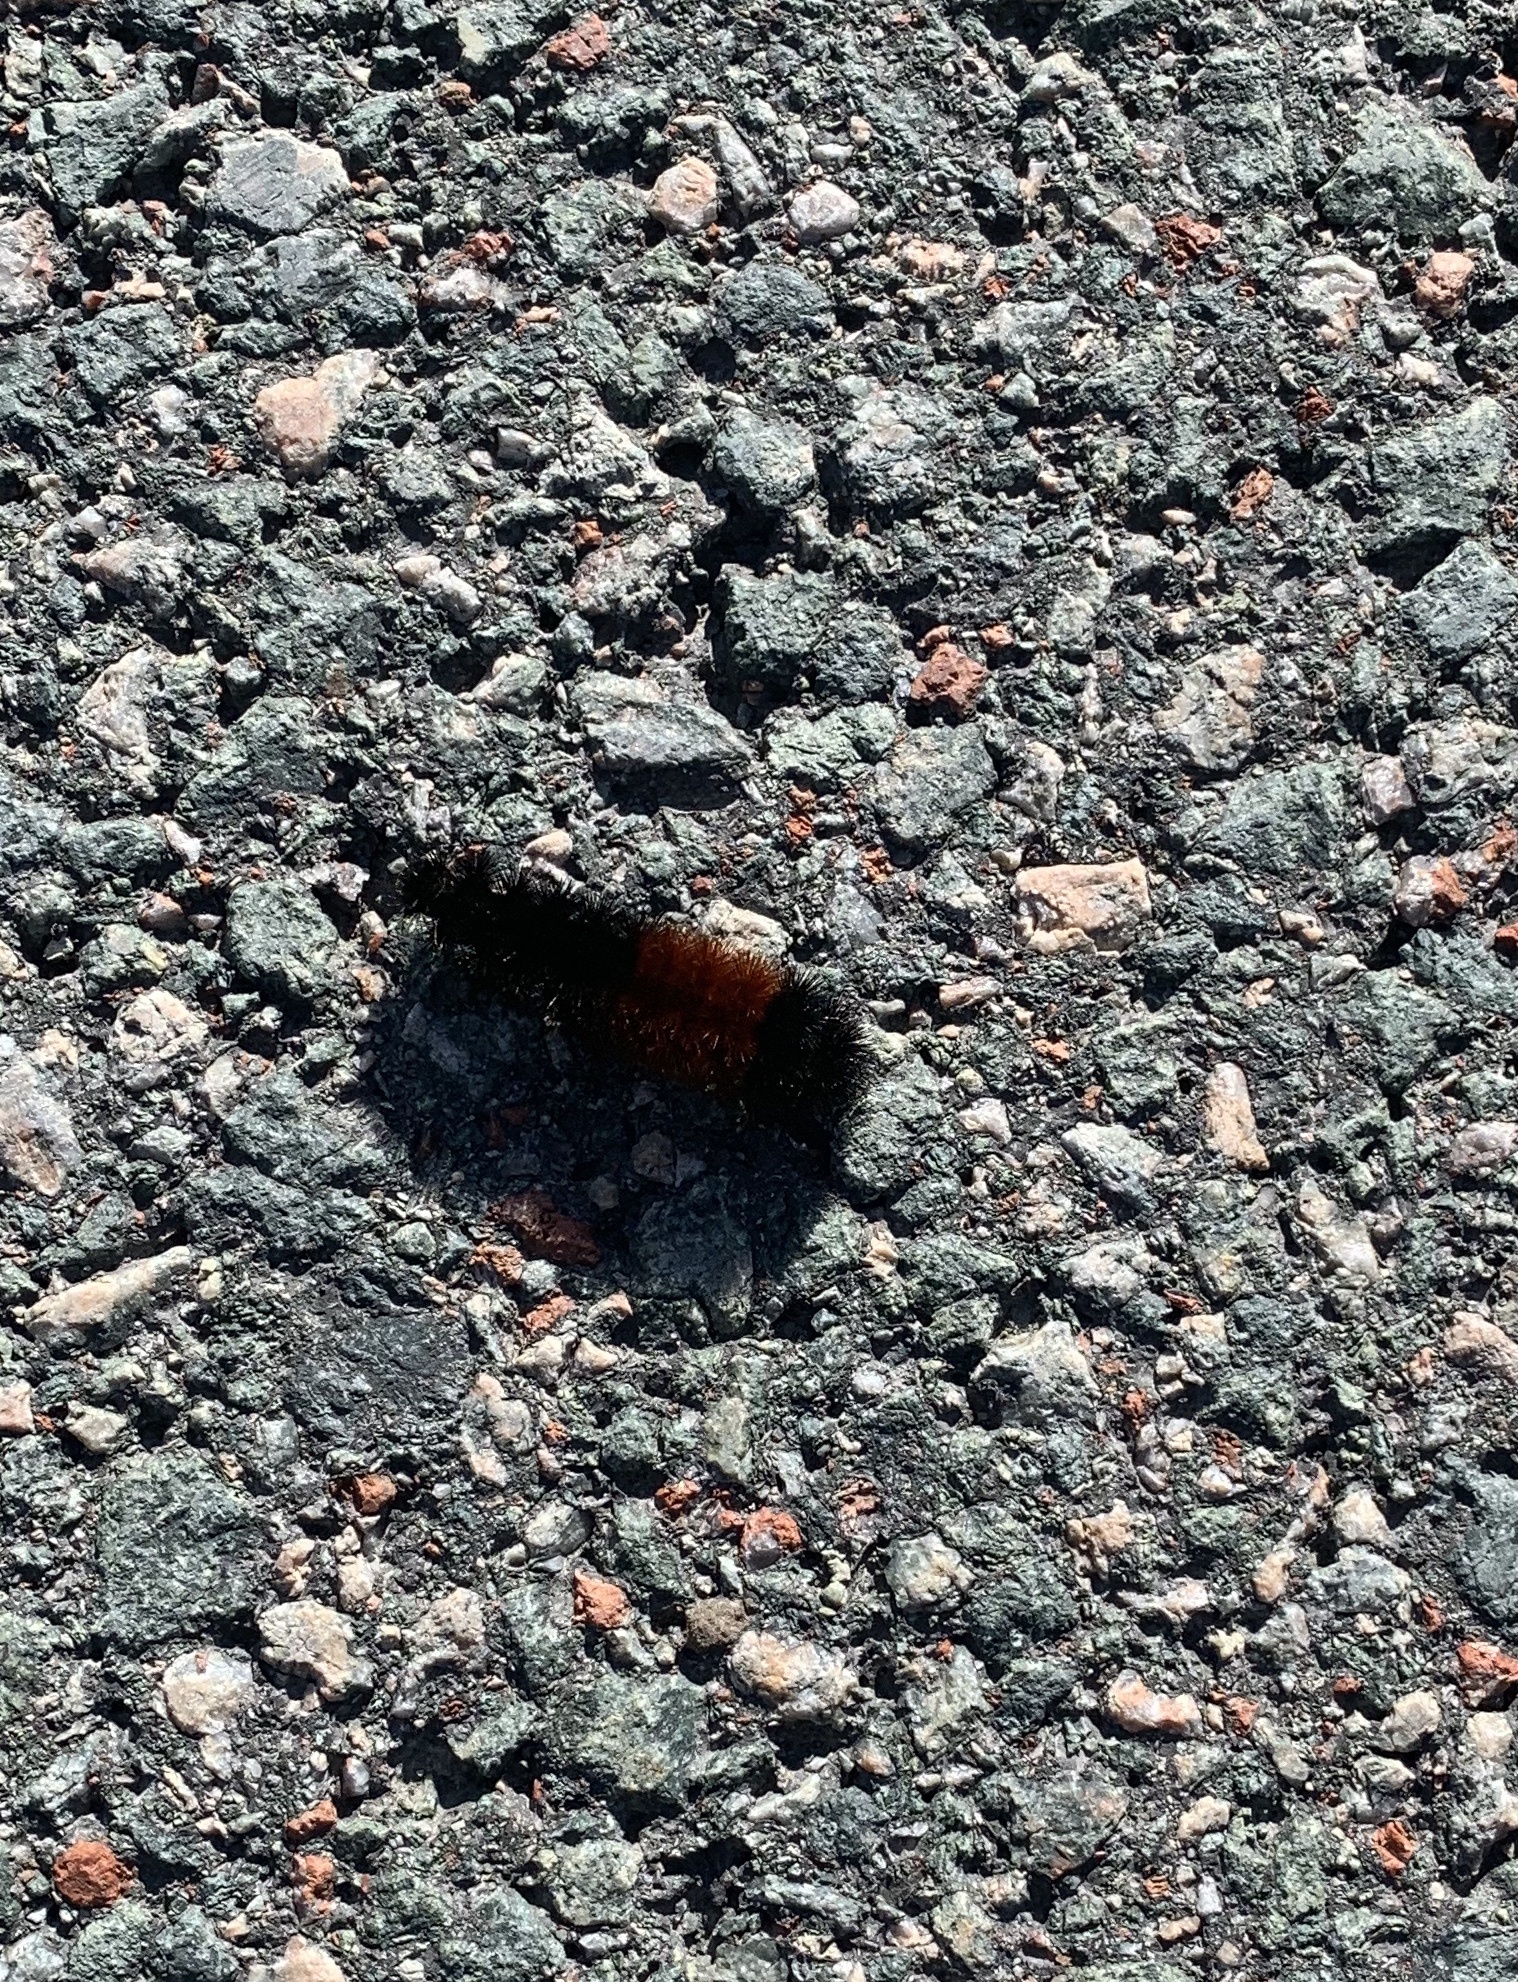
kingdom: Animalia
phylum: Arthropoda
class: Insecta
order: Lepidoptera
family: Erebidae
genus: Pyrrharctia
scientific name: Pyrrharctia isabella
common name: Isabella tiger moth
